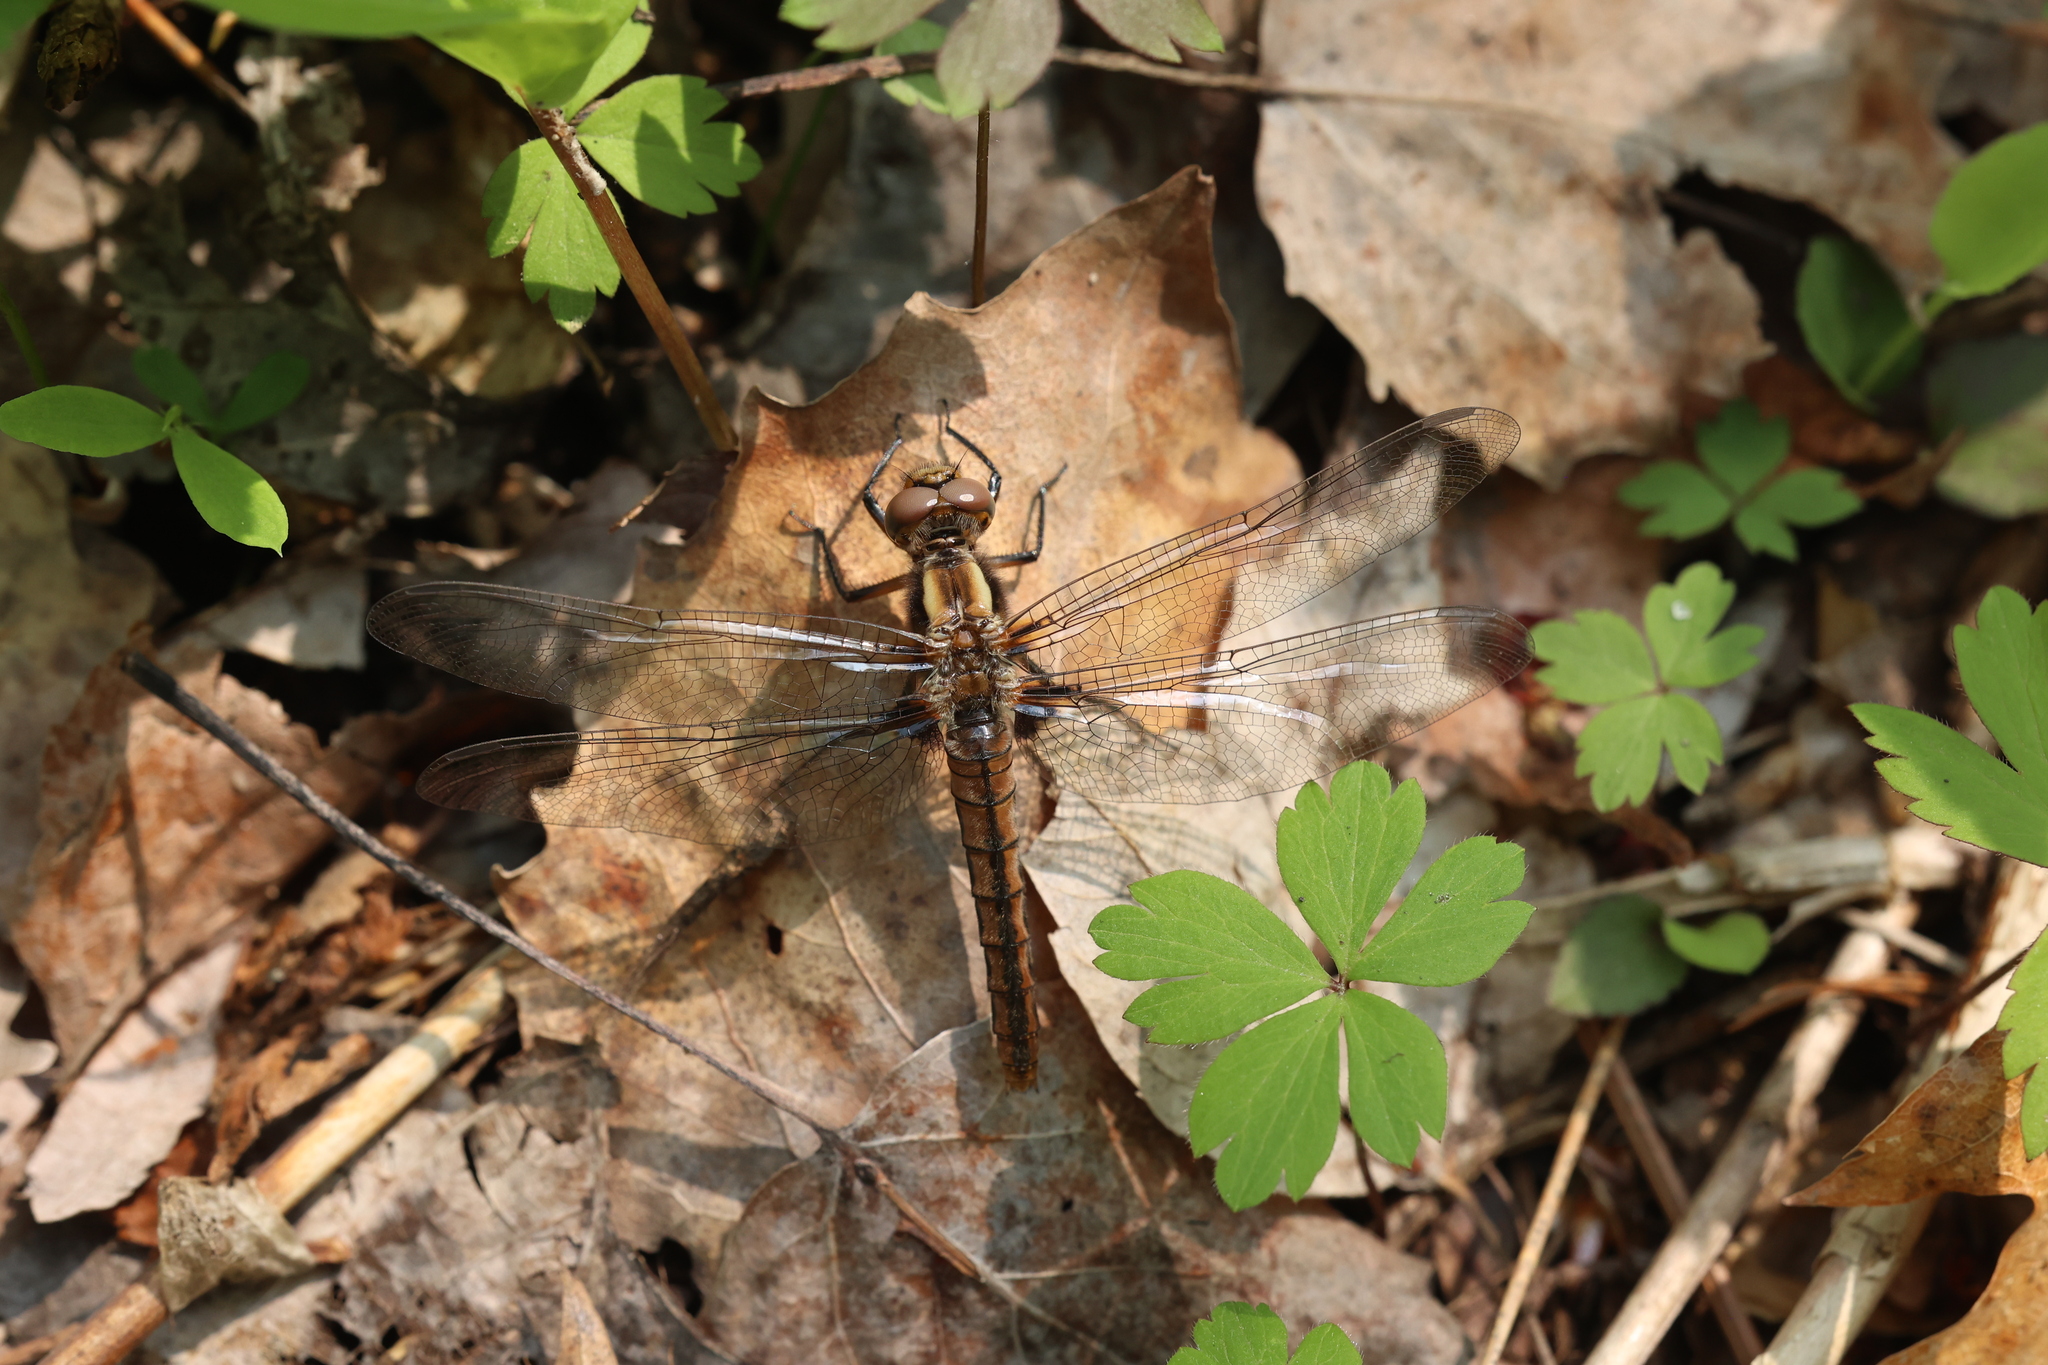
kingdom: Animalia
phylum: Arthropoda
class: Insecta
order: Odonata
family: Libellulidae
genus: Ladona
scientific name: Ladona julia
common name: Chalk-fronted corporal
